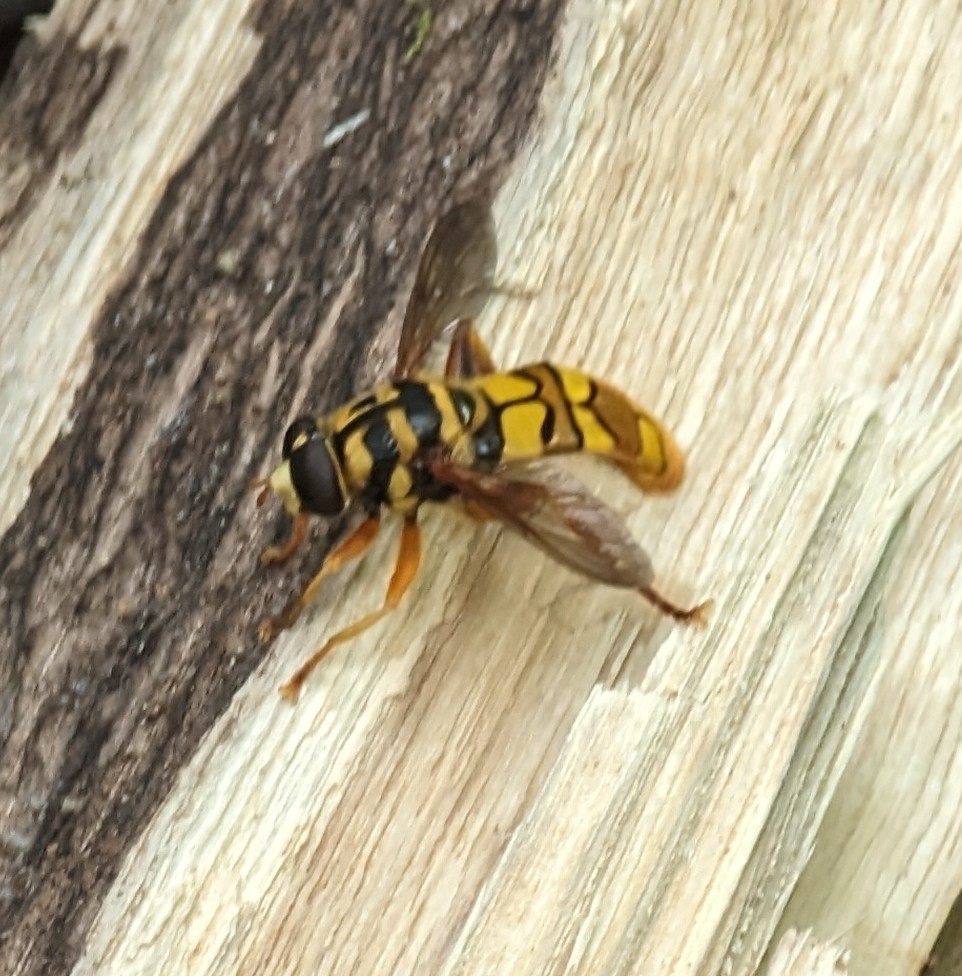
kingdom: Animalia
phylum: Arthropoda
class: Insecta
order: Diptera
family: Syrphidae
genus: Milesia
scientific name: Milesia virginiensis
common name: Virginia giant
